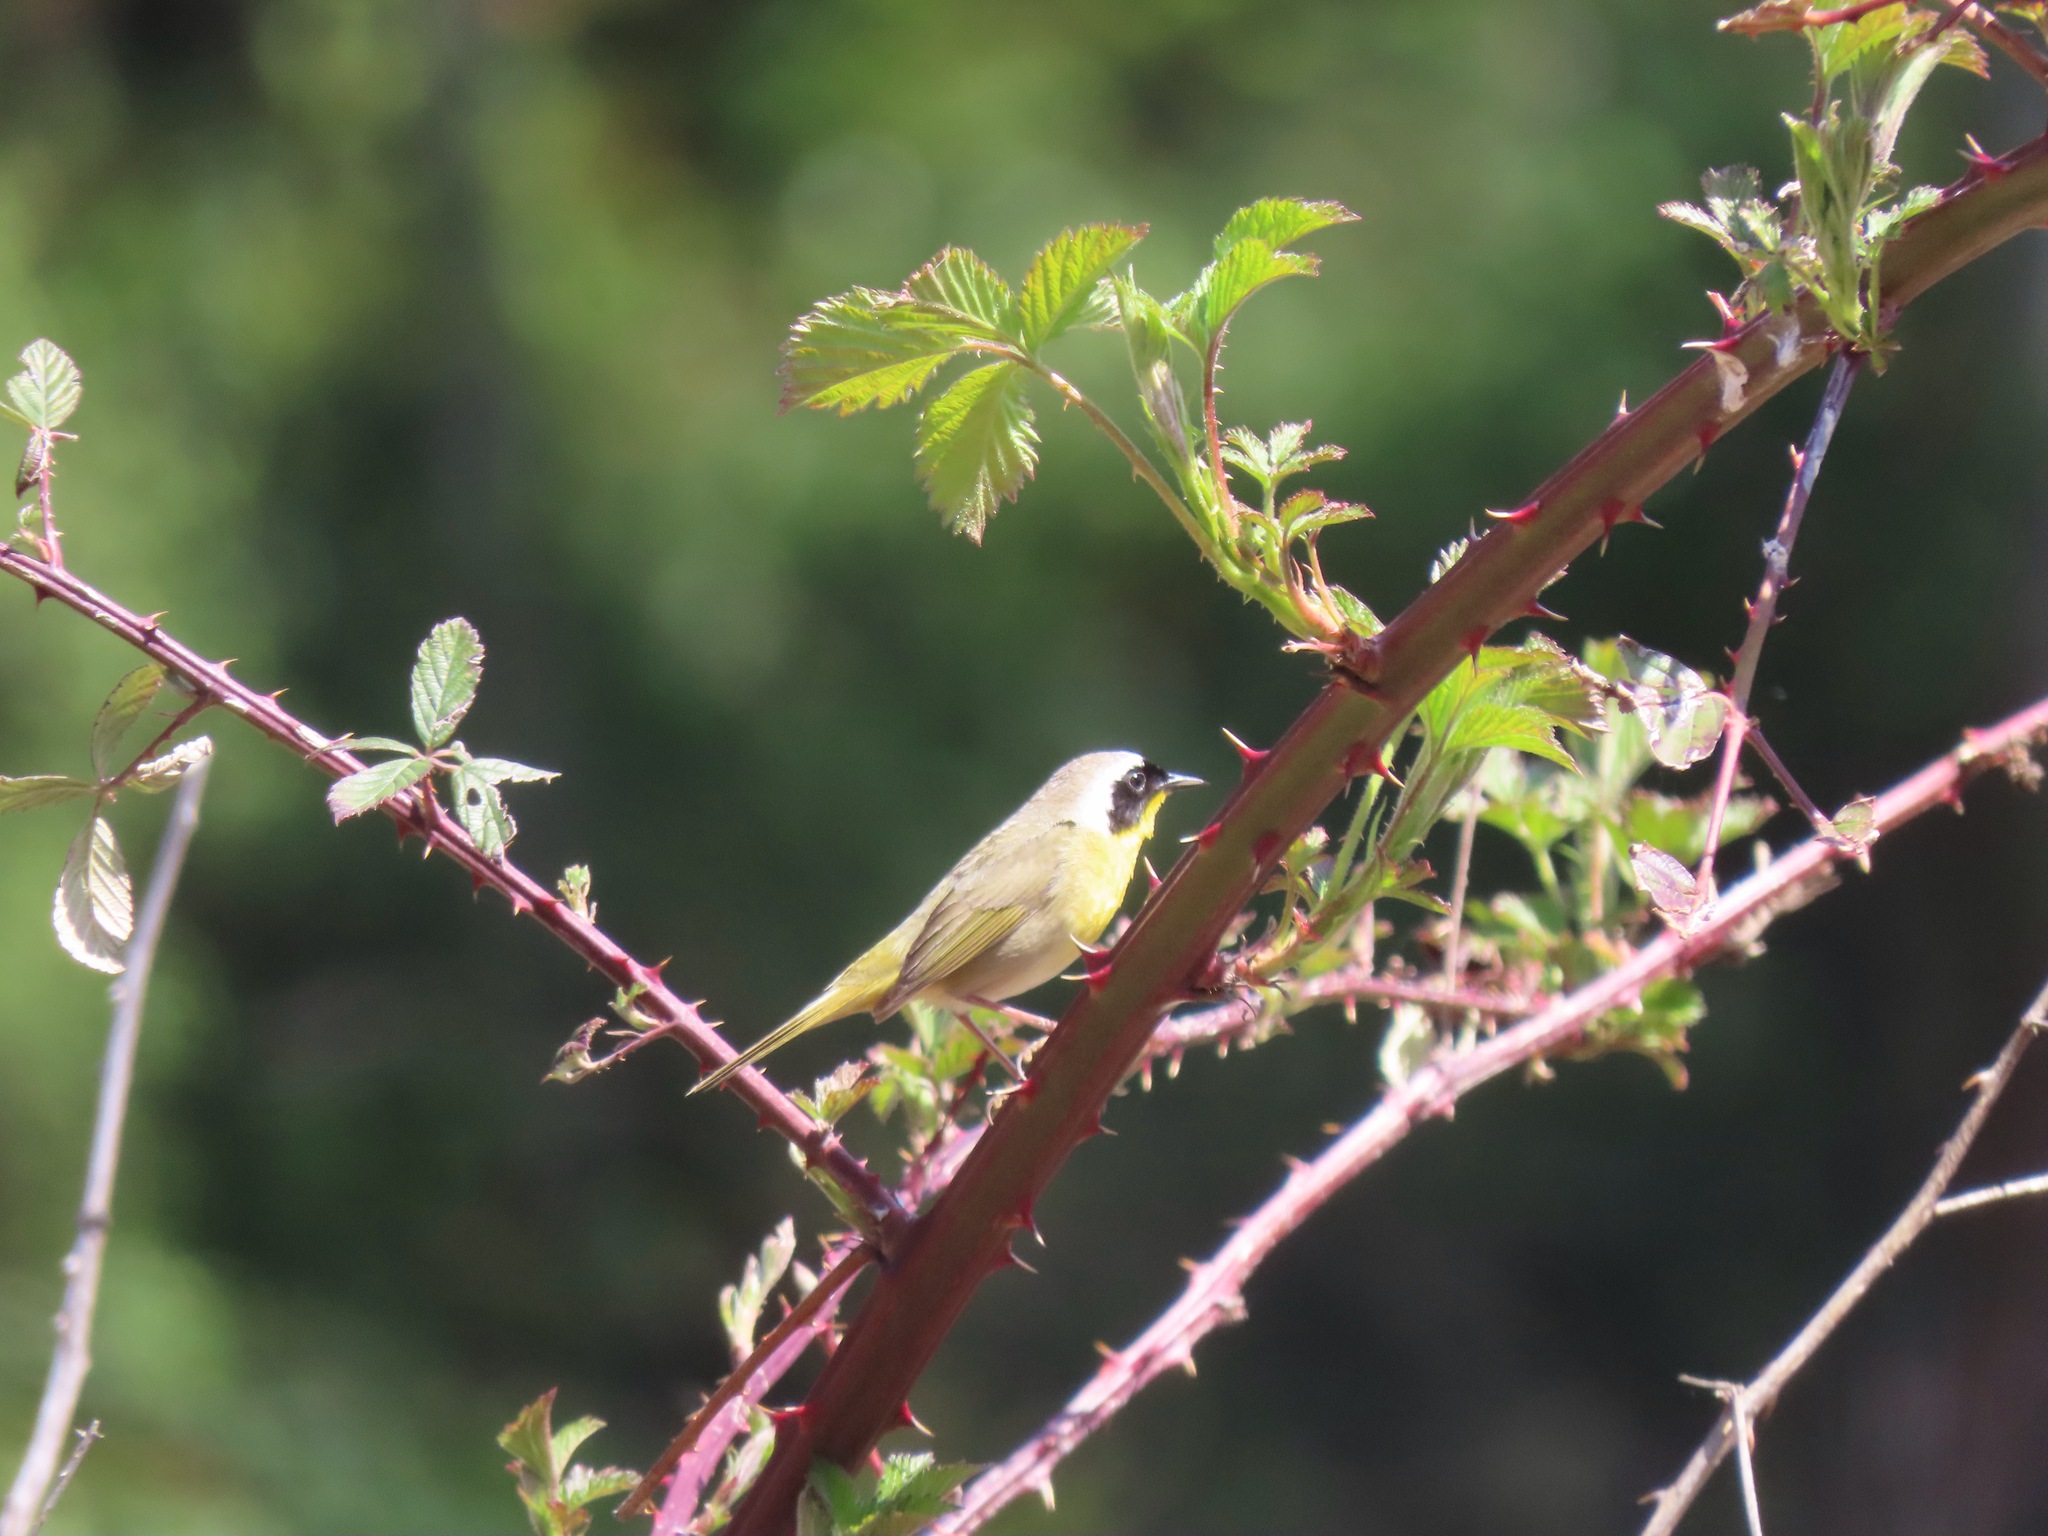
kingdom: Animalia
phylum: Chordata
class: Aves
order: Passeriformes
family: Parulidae
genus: Geothlypis
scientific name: Geothlypis trichas
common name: Common yellowthroat
